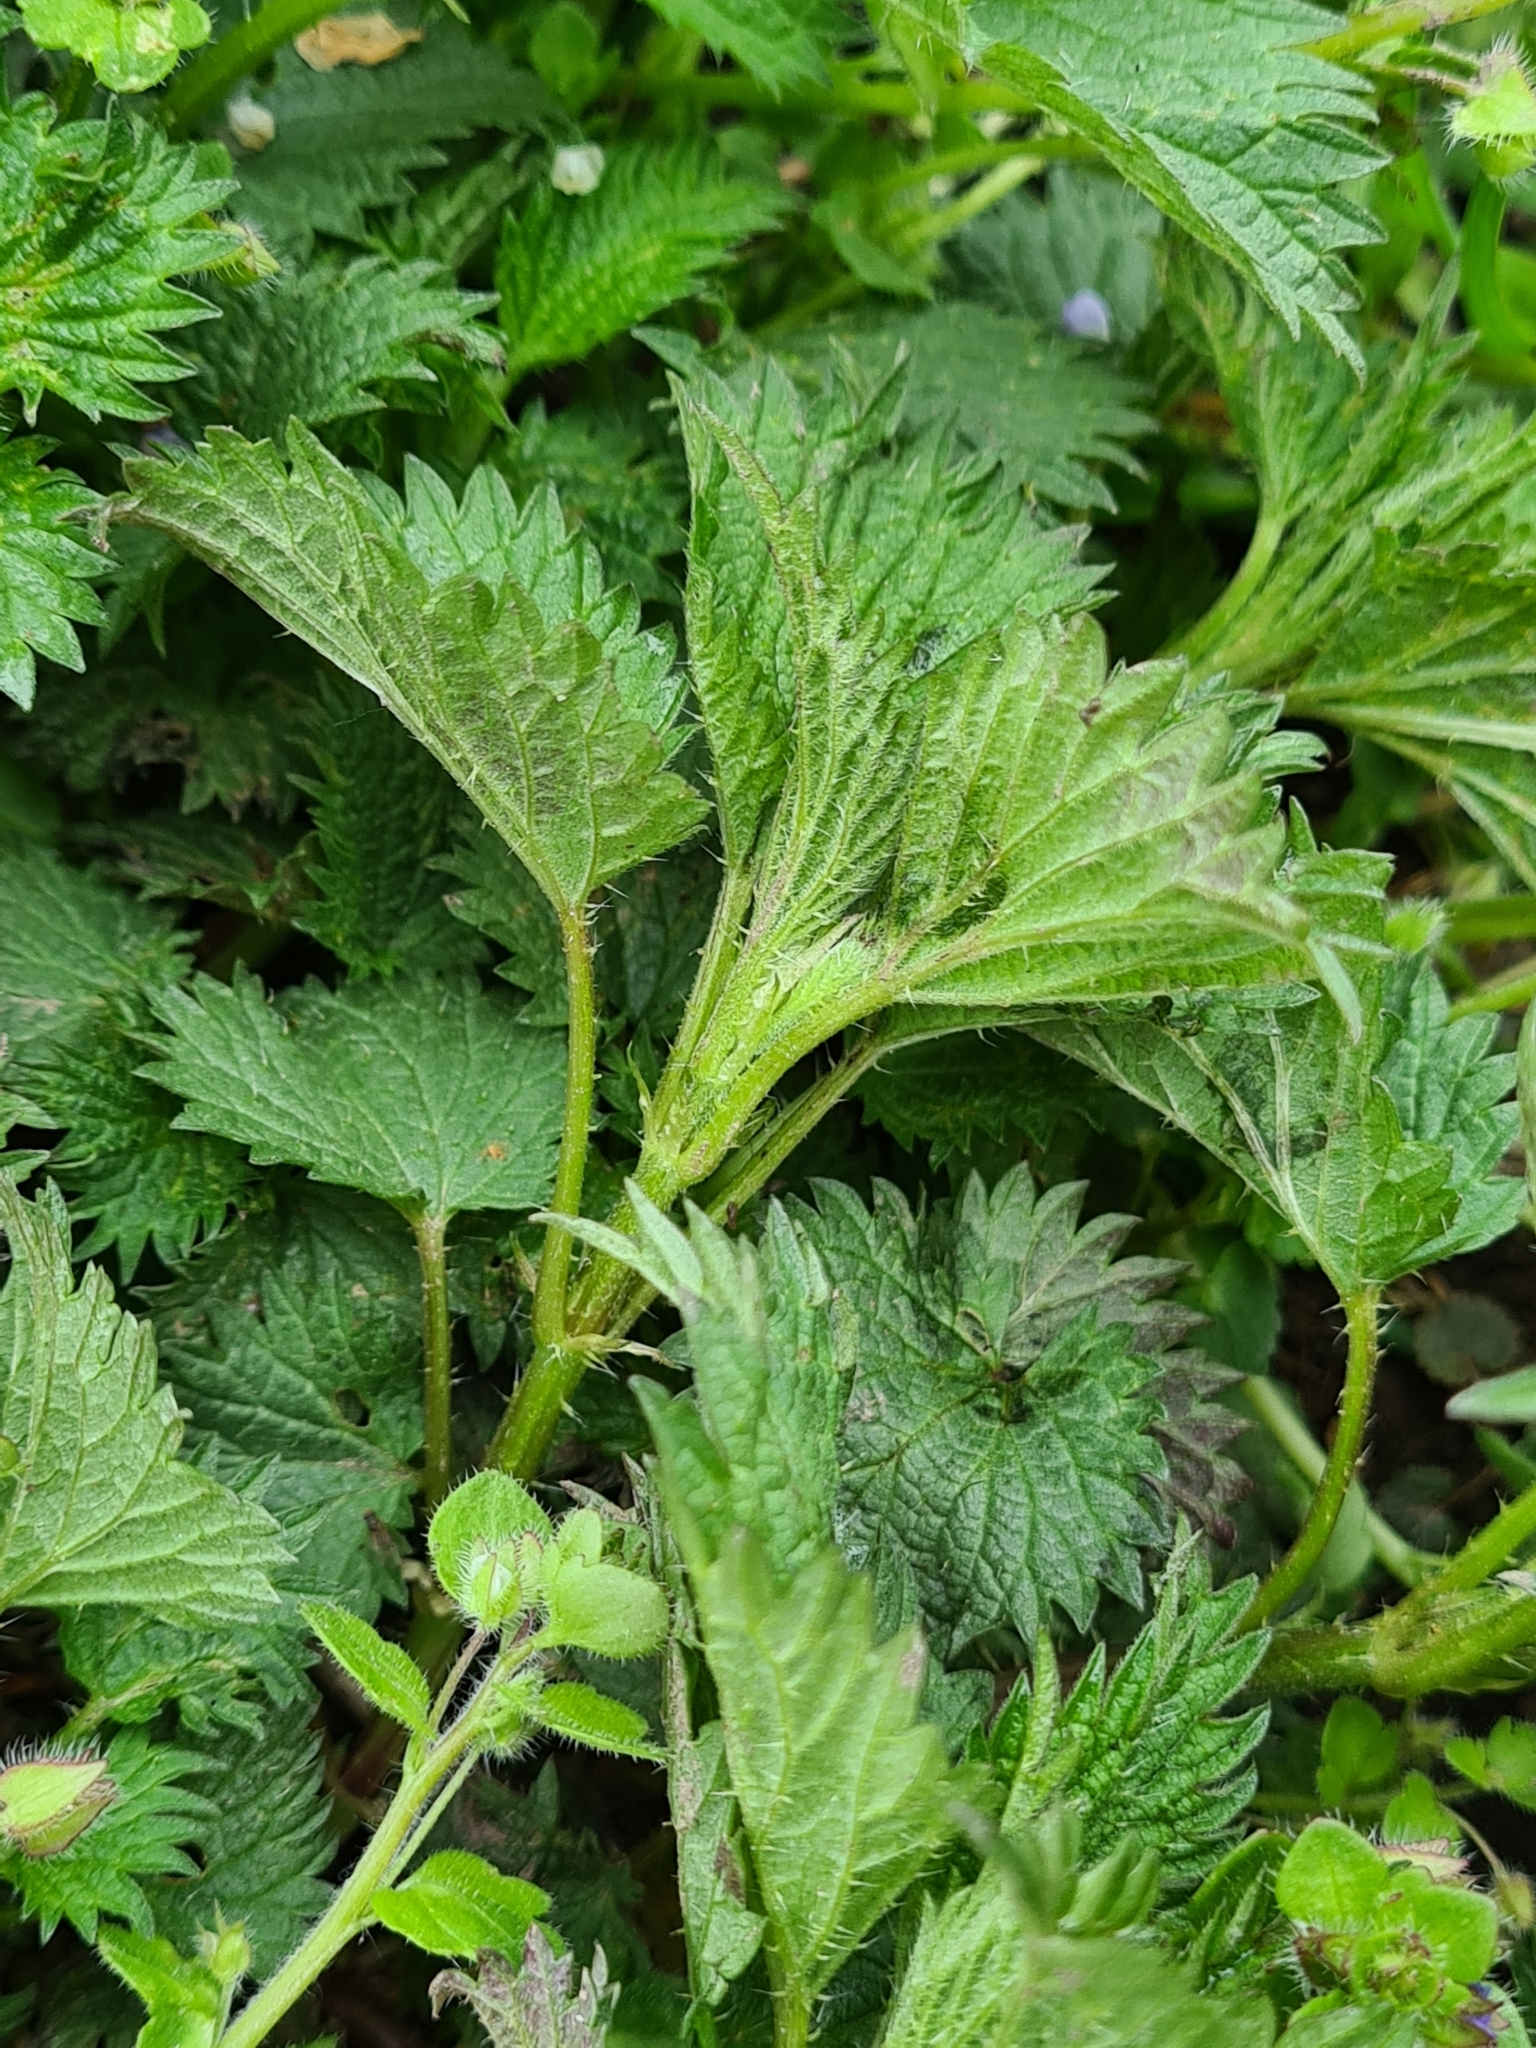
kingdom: Plantae
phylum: Tracheophyta
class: Magnoliopsida
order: Rosales
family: Urticaceae
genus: Urtica
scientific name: Urtica dioica
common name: Common nettle
